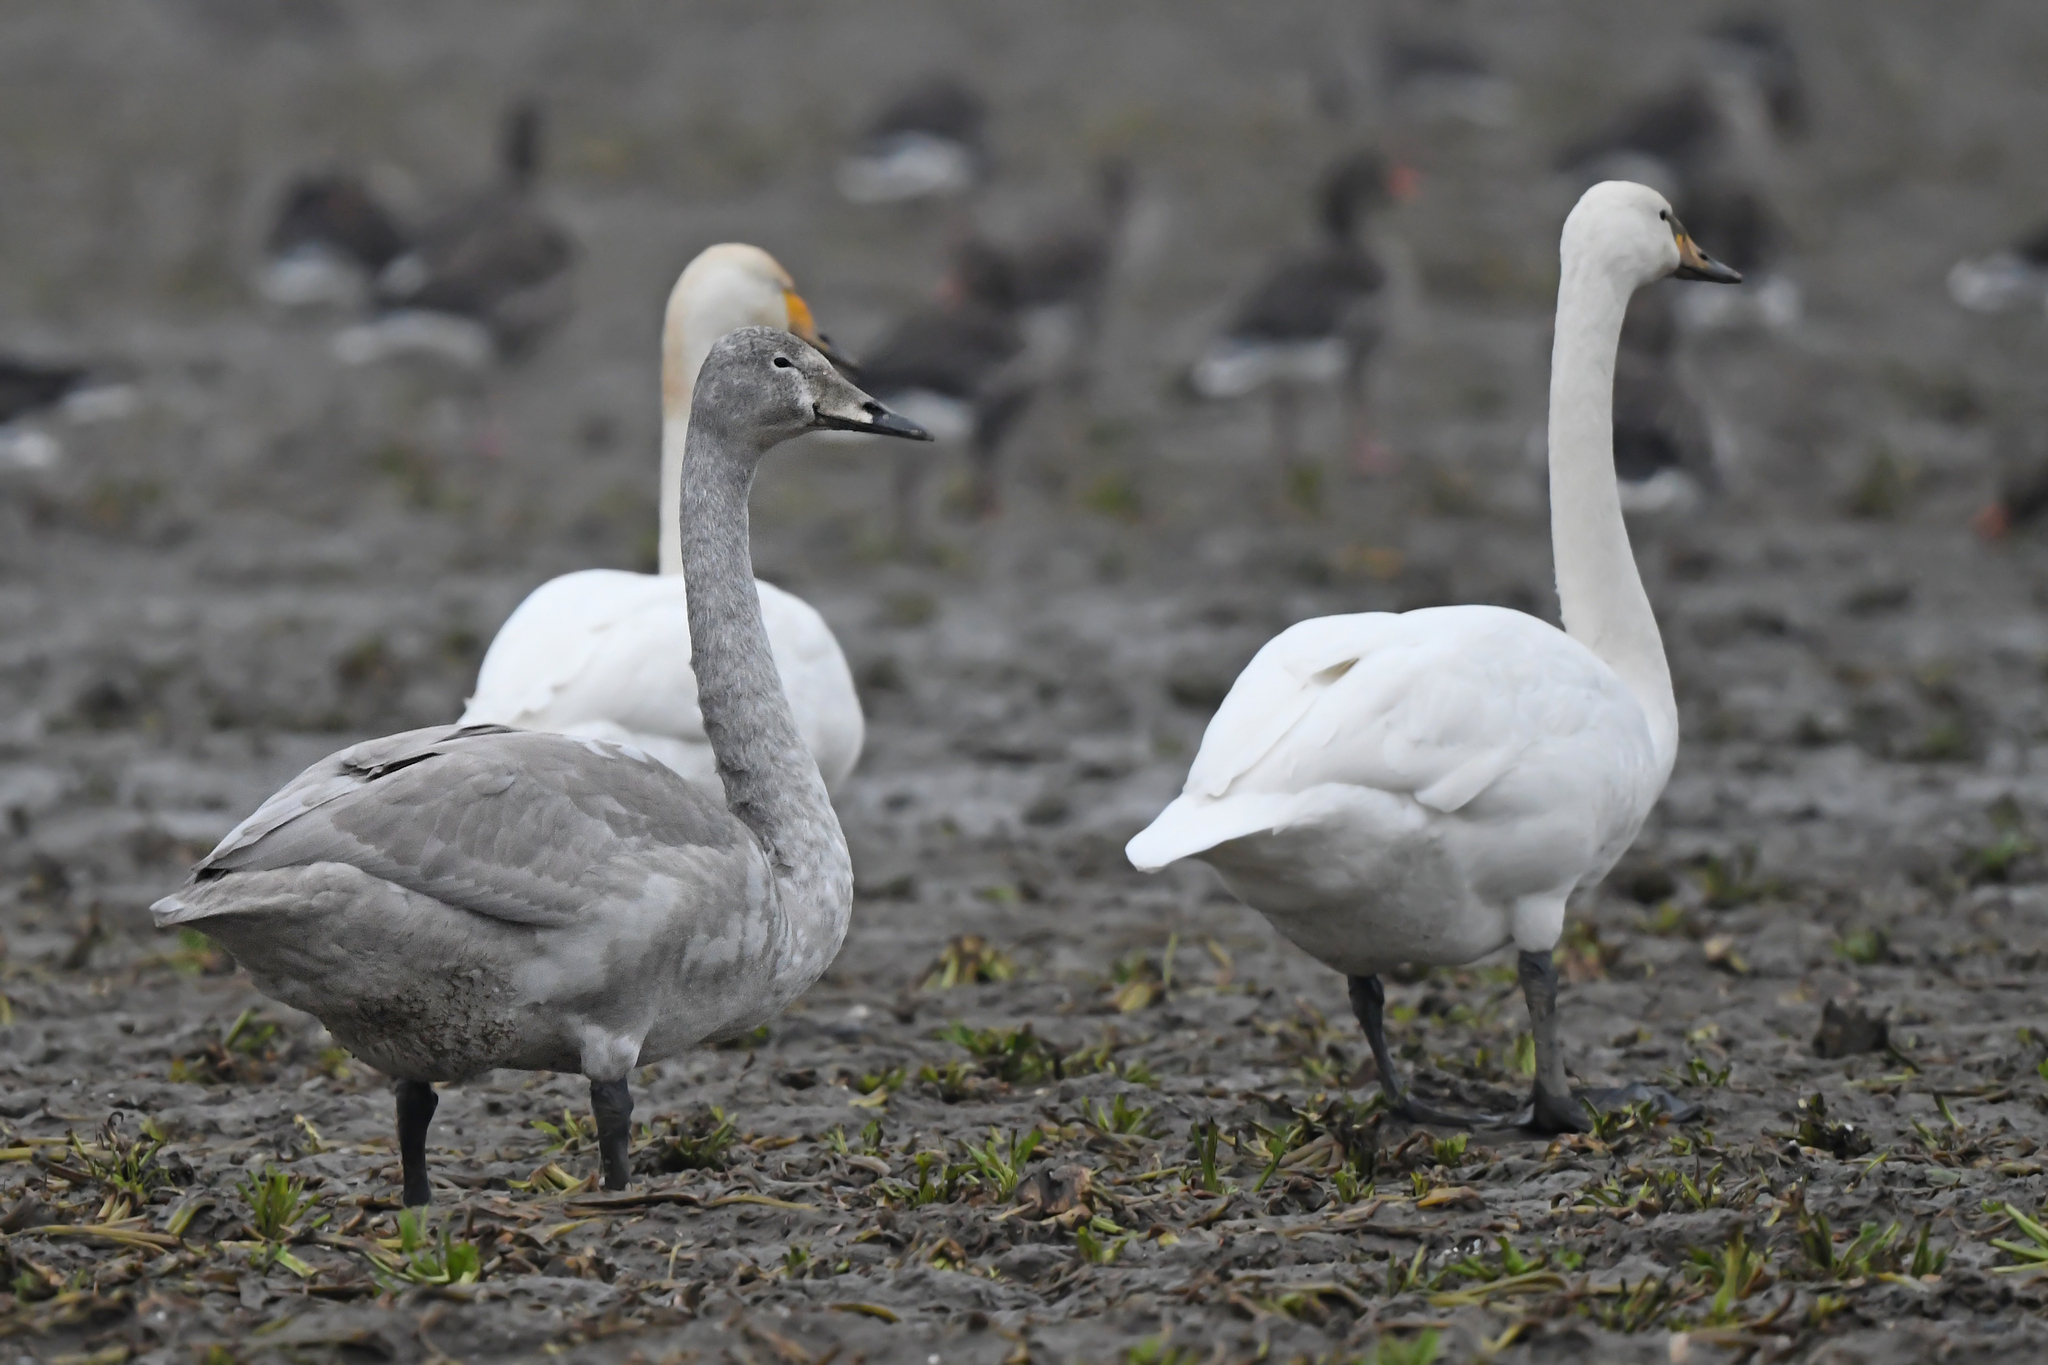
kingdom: Animalia
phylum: Chordata
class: Aves
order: Anseriformes
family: Anatidae
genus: Cygnus
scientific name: Cygnus cygnus
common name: Whooper swan
